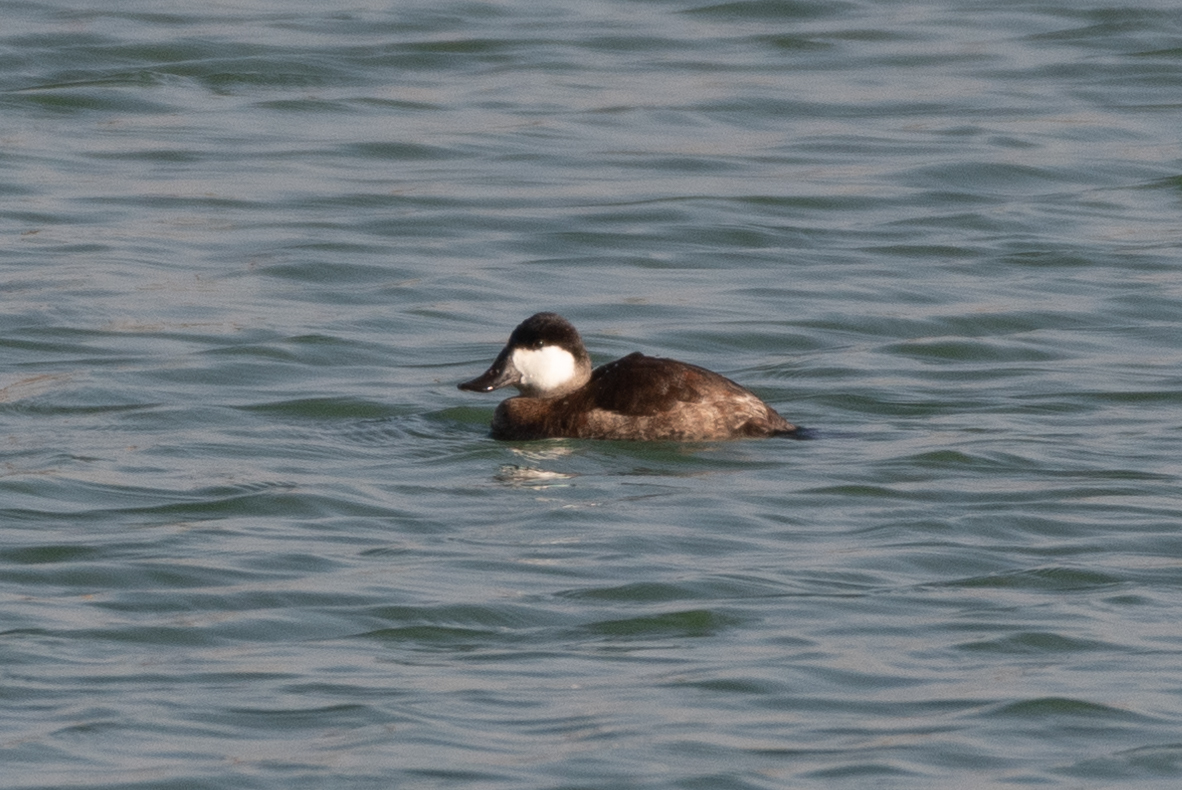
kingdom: Animalia
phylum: Chordata
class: Aves
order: Anseriformes
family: Anatidae
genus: Oxyura
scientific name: Oxyura jamaicensis
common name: Ruddy duck
